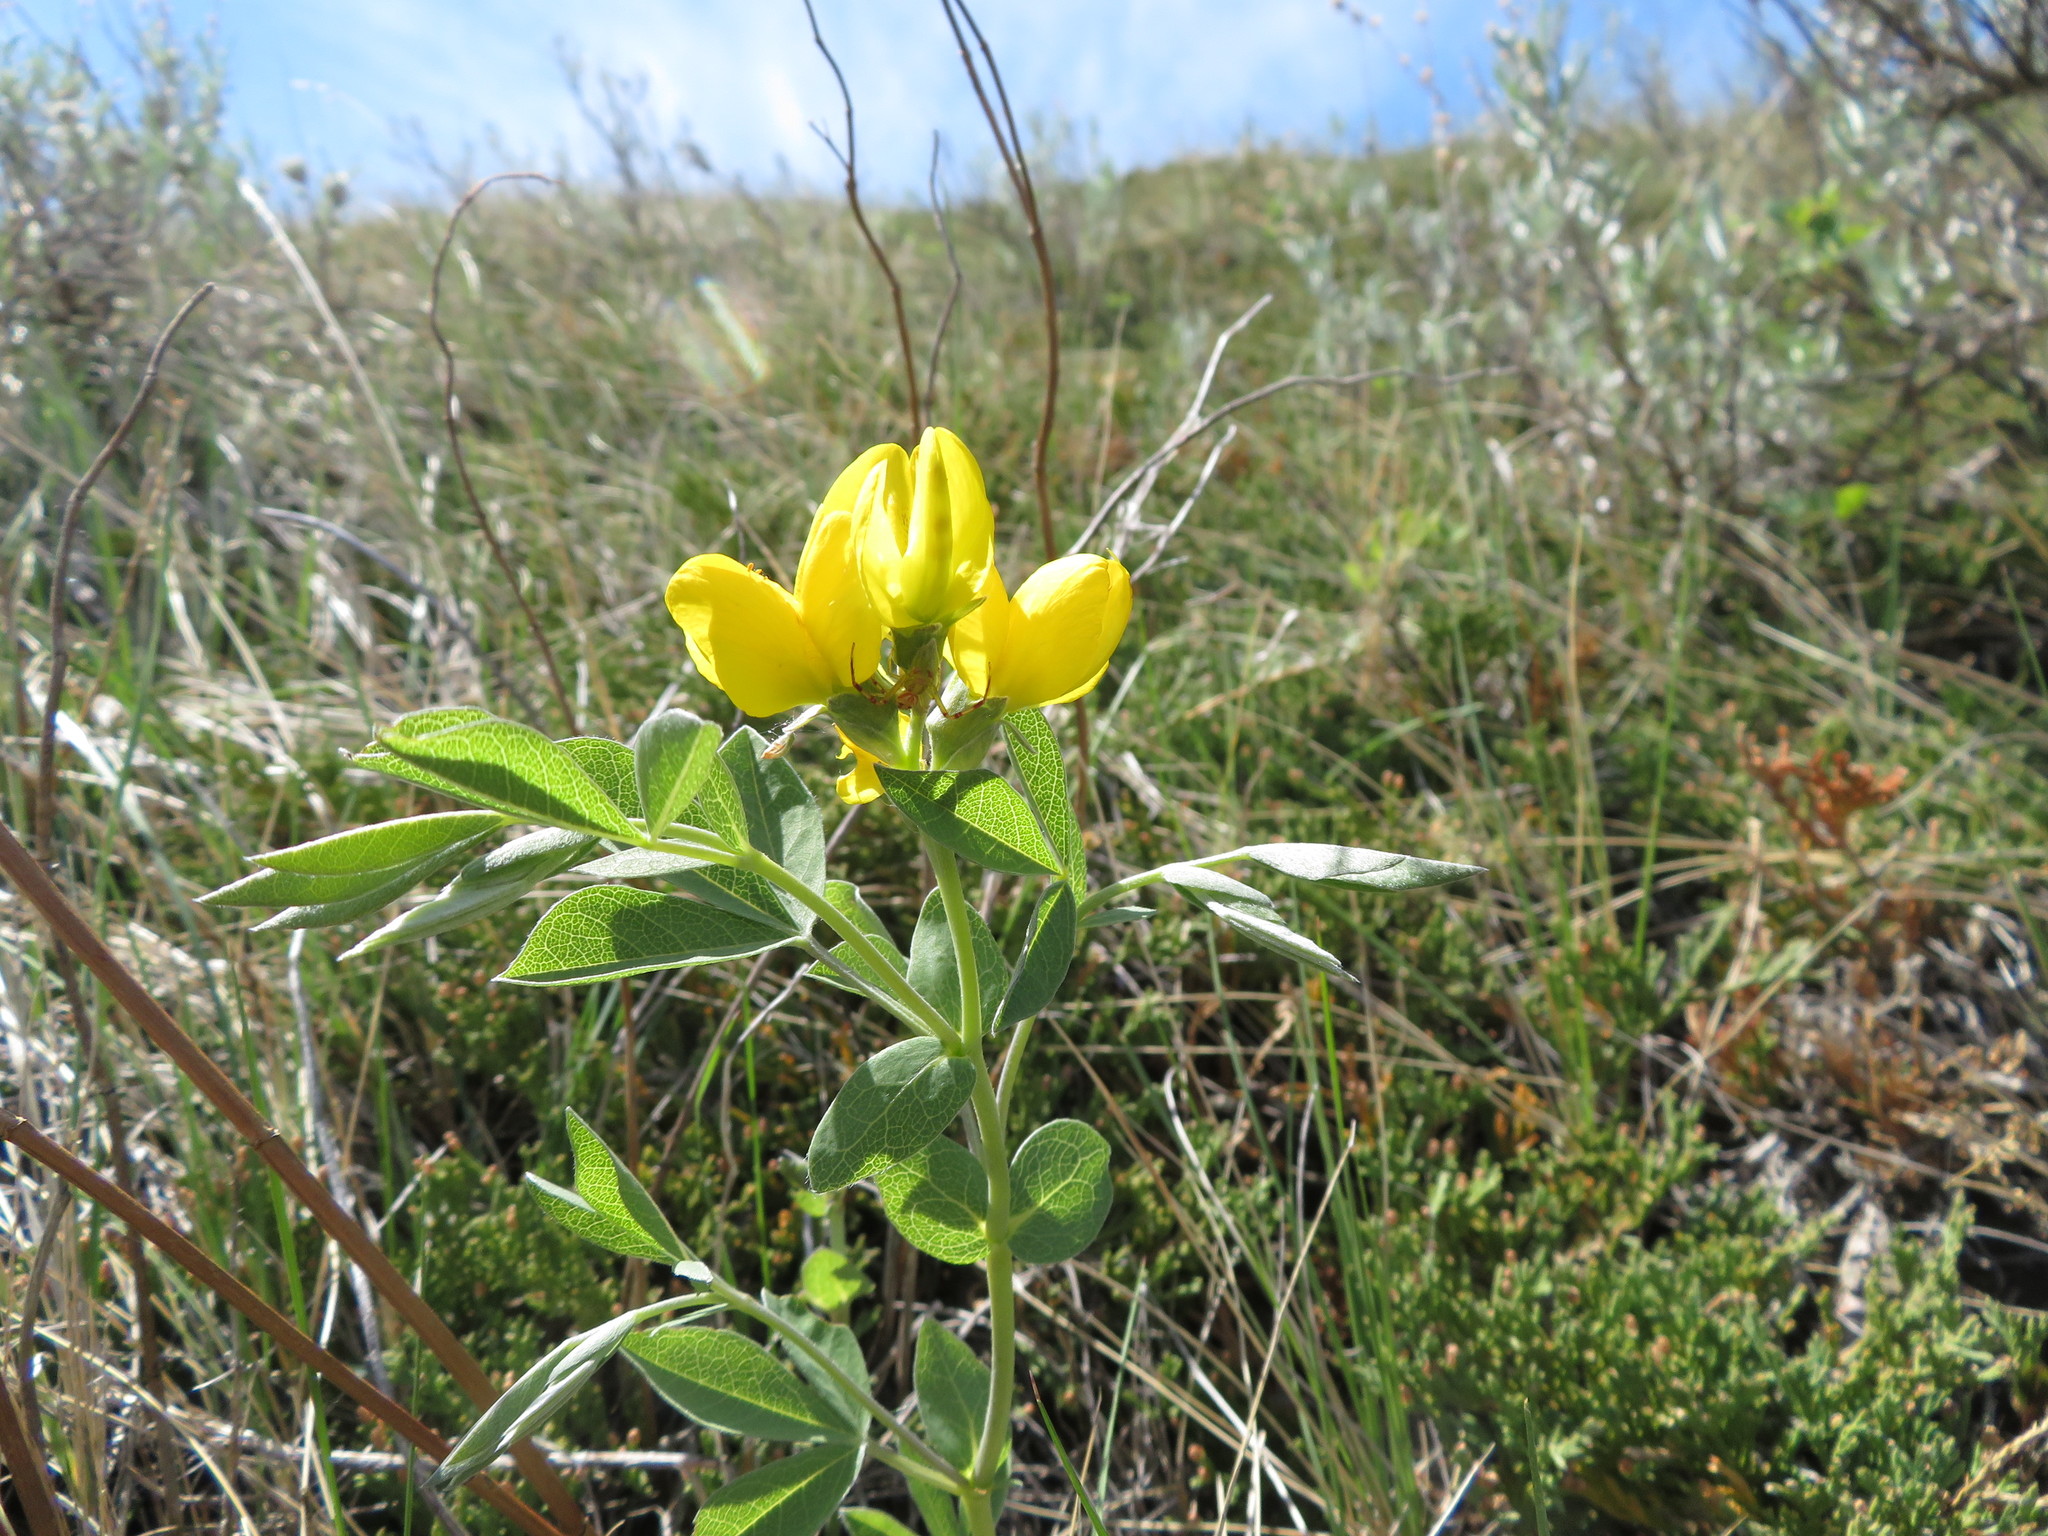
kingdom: Plantae
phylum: Tracheophyta
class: Magnoliopsida
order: Fabales
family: Fabaceae
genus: Thermopsis
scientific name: Thermopsis rhombifolia
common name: Circle-pod-pea
